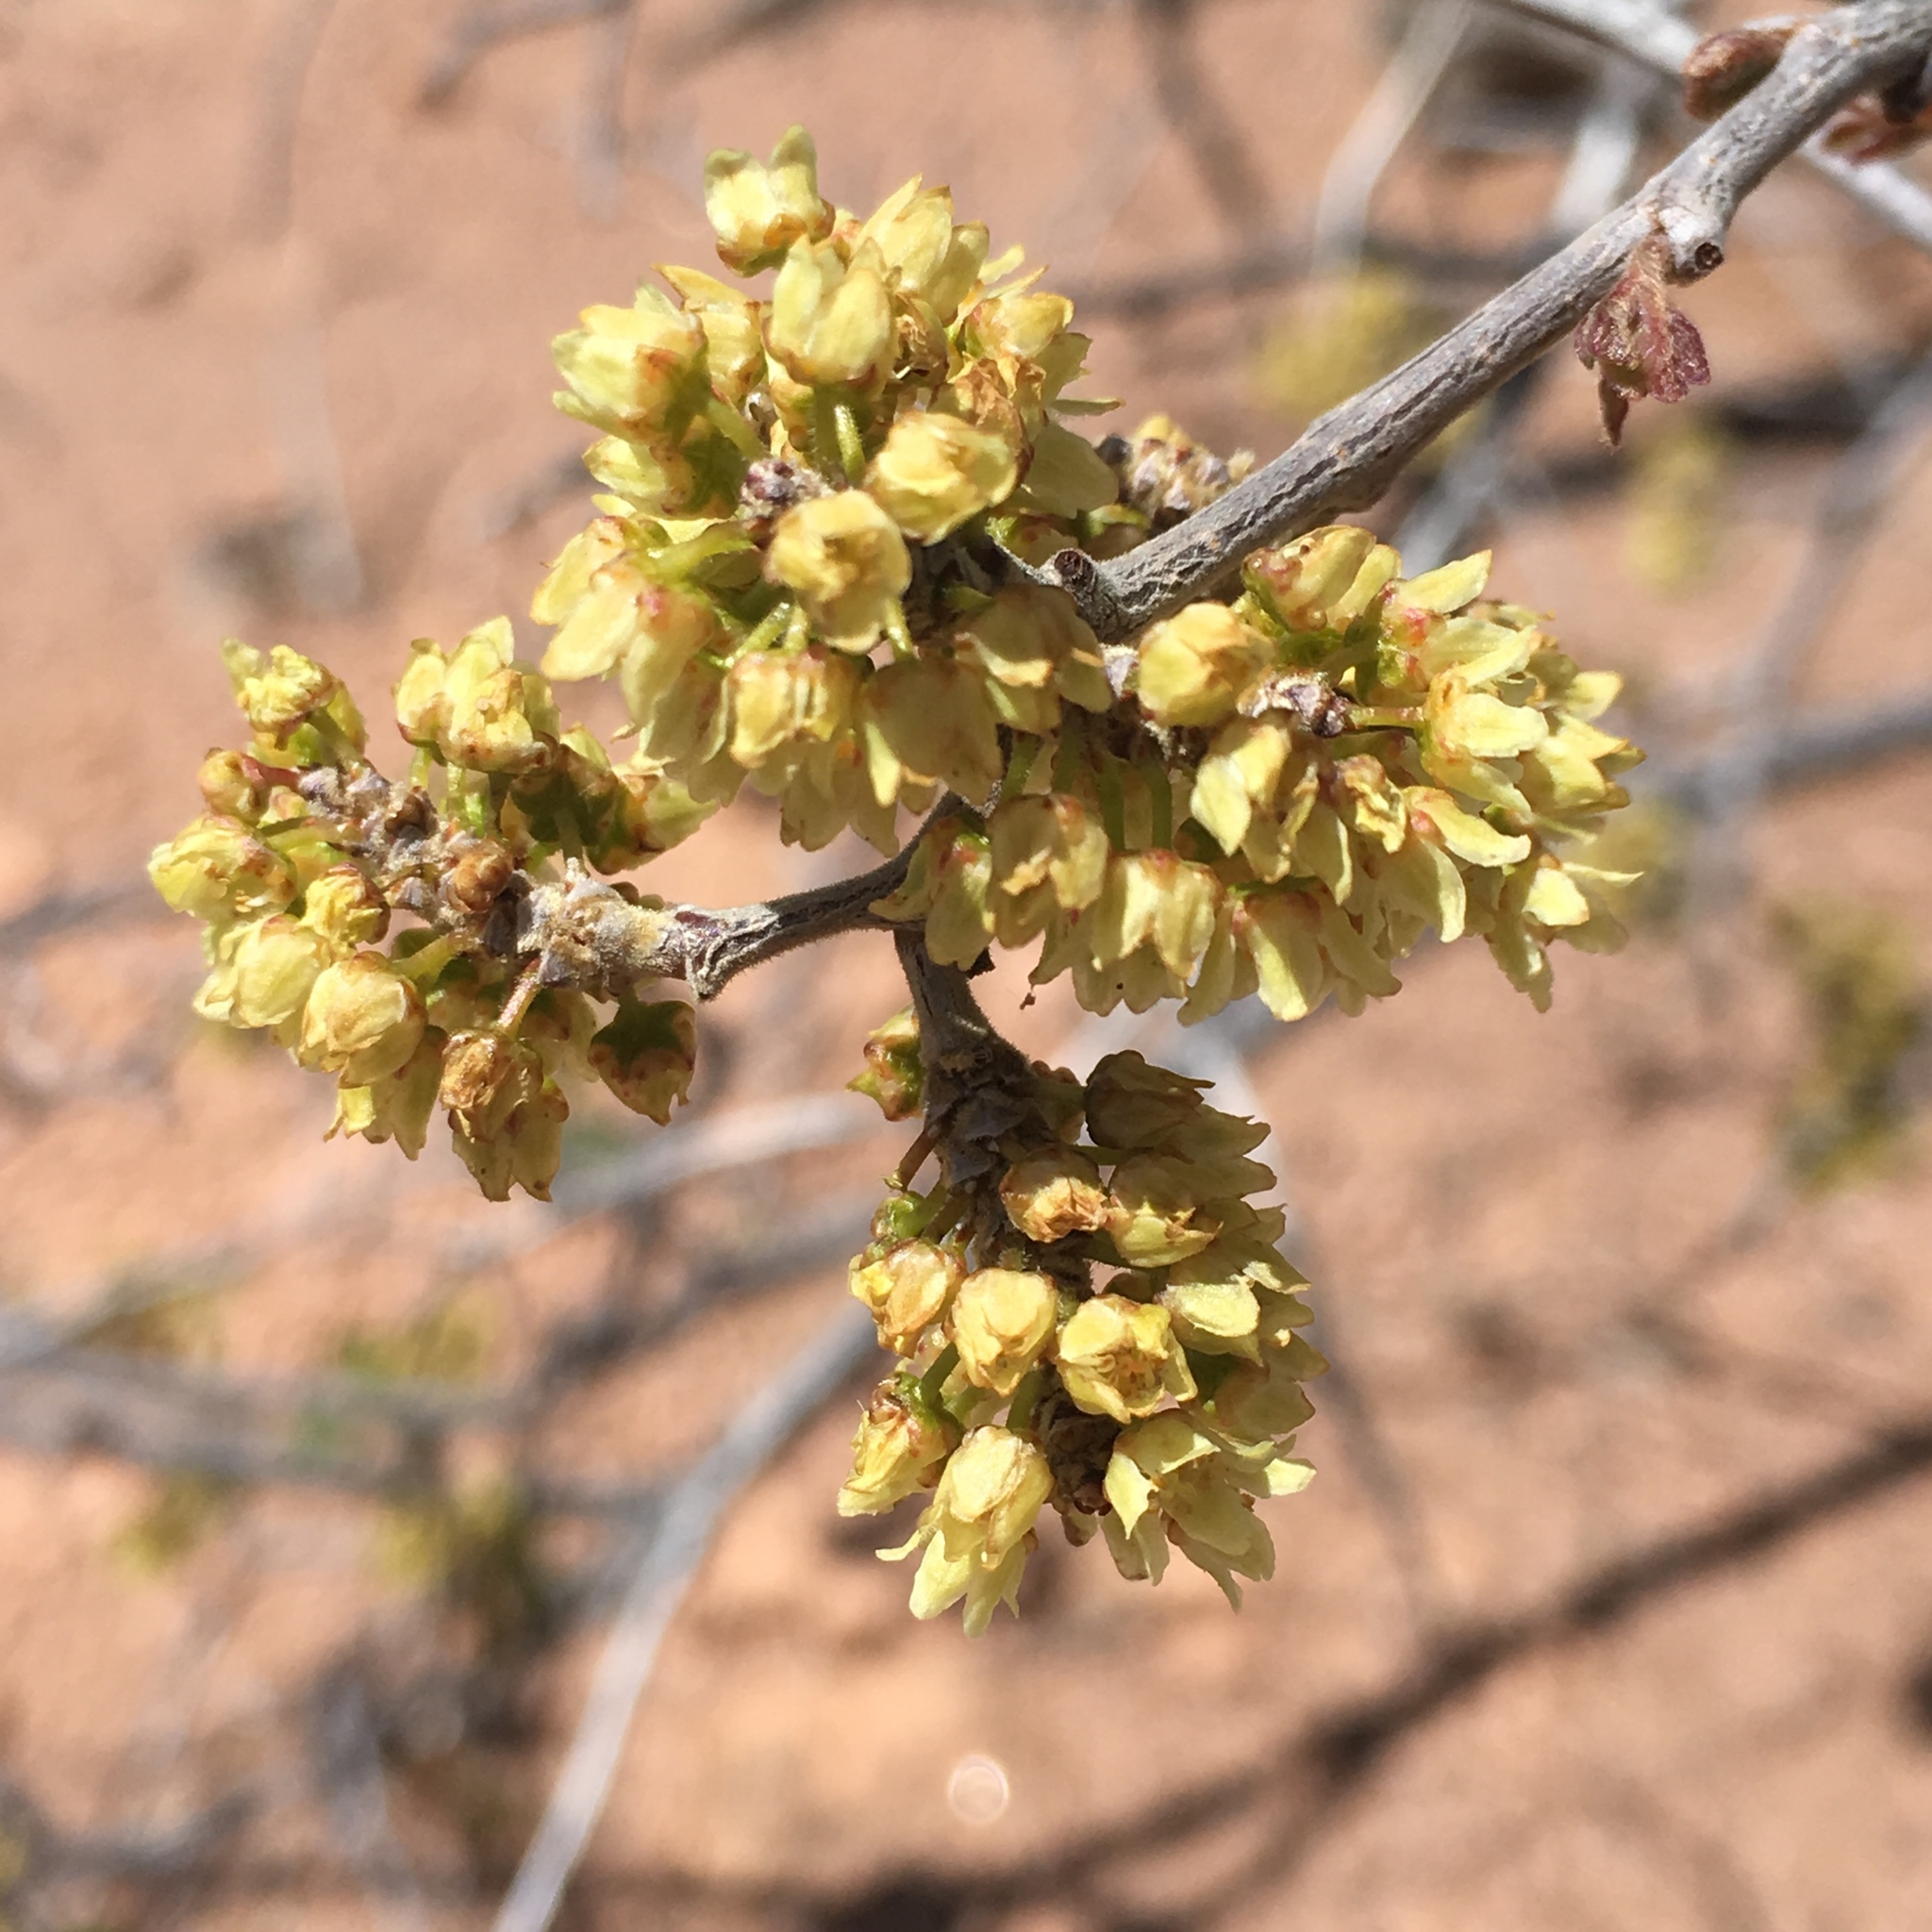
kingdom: Plantae
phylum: Tracheophyta
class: Magnoliopsida
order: Sapindales
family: Anacardiaceae
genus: Rhus
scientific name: Rhus aromatica
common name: Aromatic sumac
